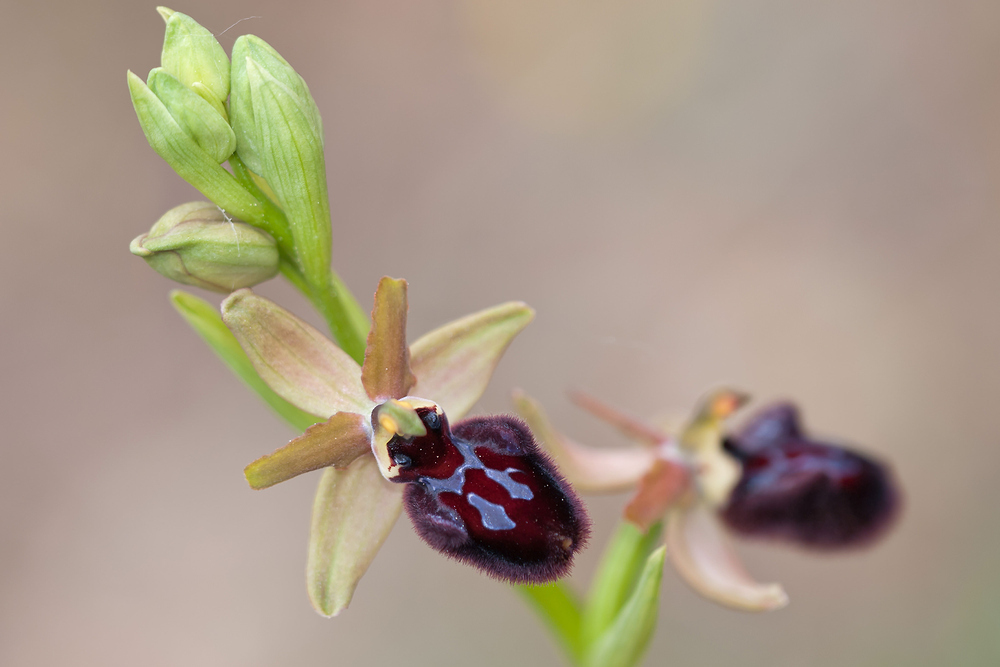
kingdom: Plantae
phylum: Tracheophyta
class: Liliopsida
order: Asparagales
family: Orchidaceae
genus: Ophrys
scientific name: Ophrys sphegodes
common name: Early spider-orchid
